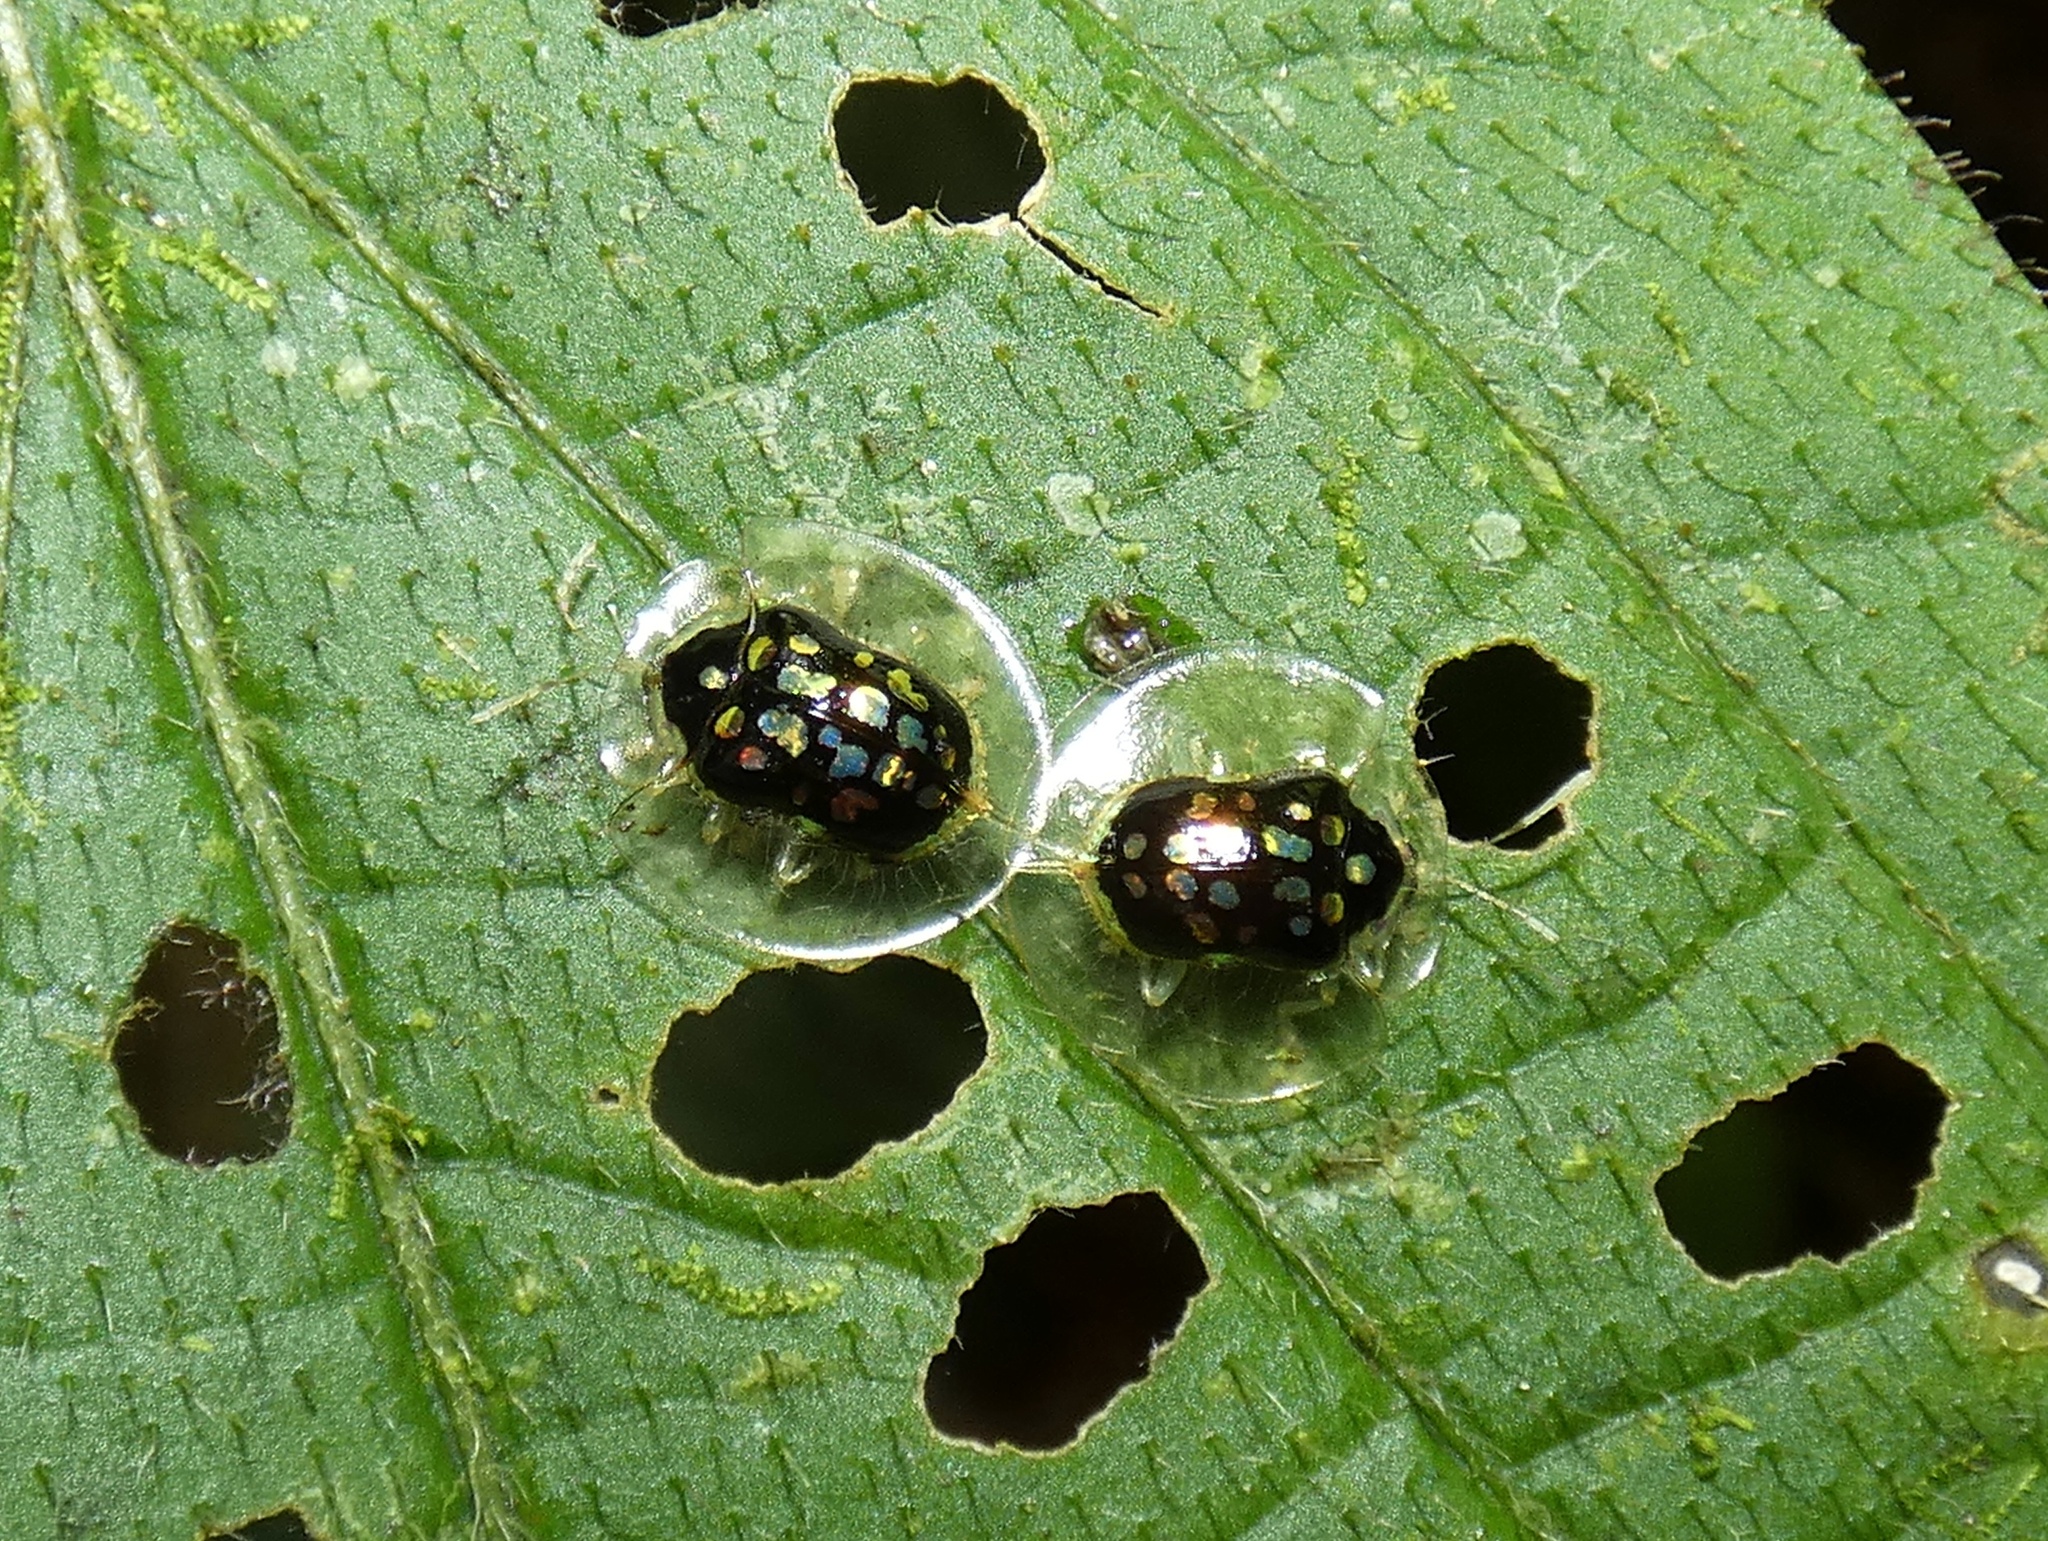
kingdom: Animalia
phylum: Arthropoda
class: Insecta
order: Coleoptera
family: Chrysomelidae
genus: Plagiometriona
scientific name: Plagiometriona latemarginata
